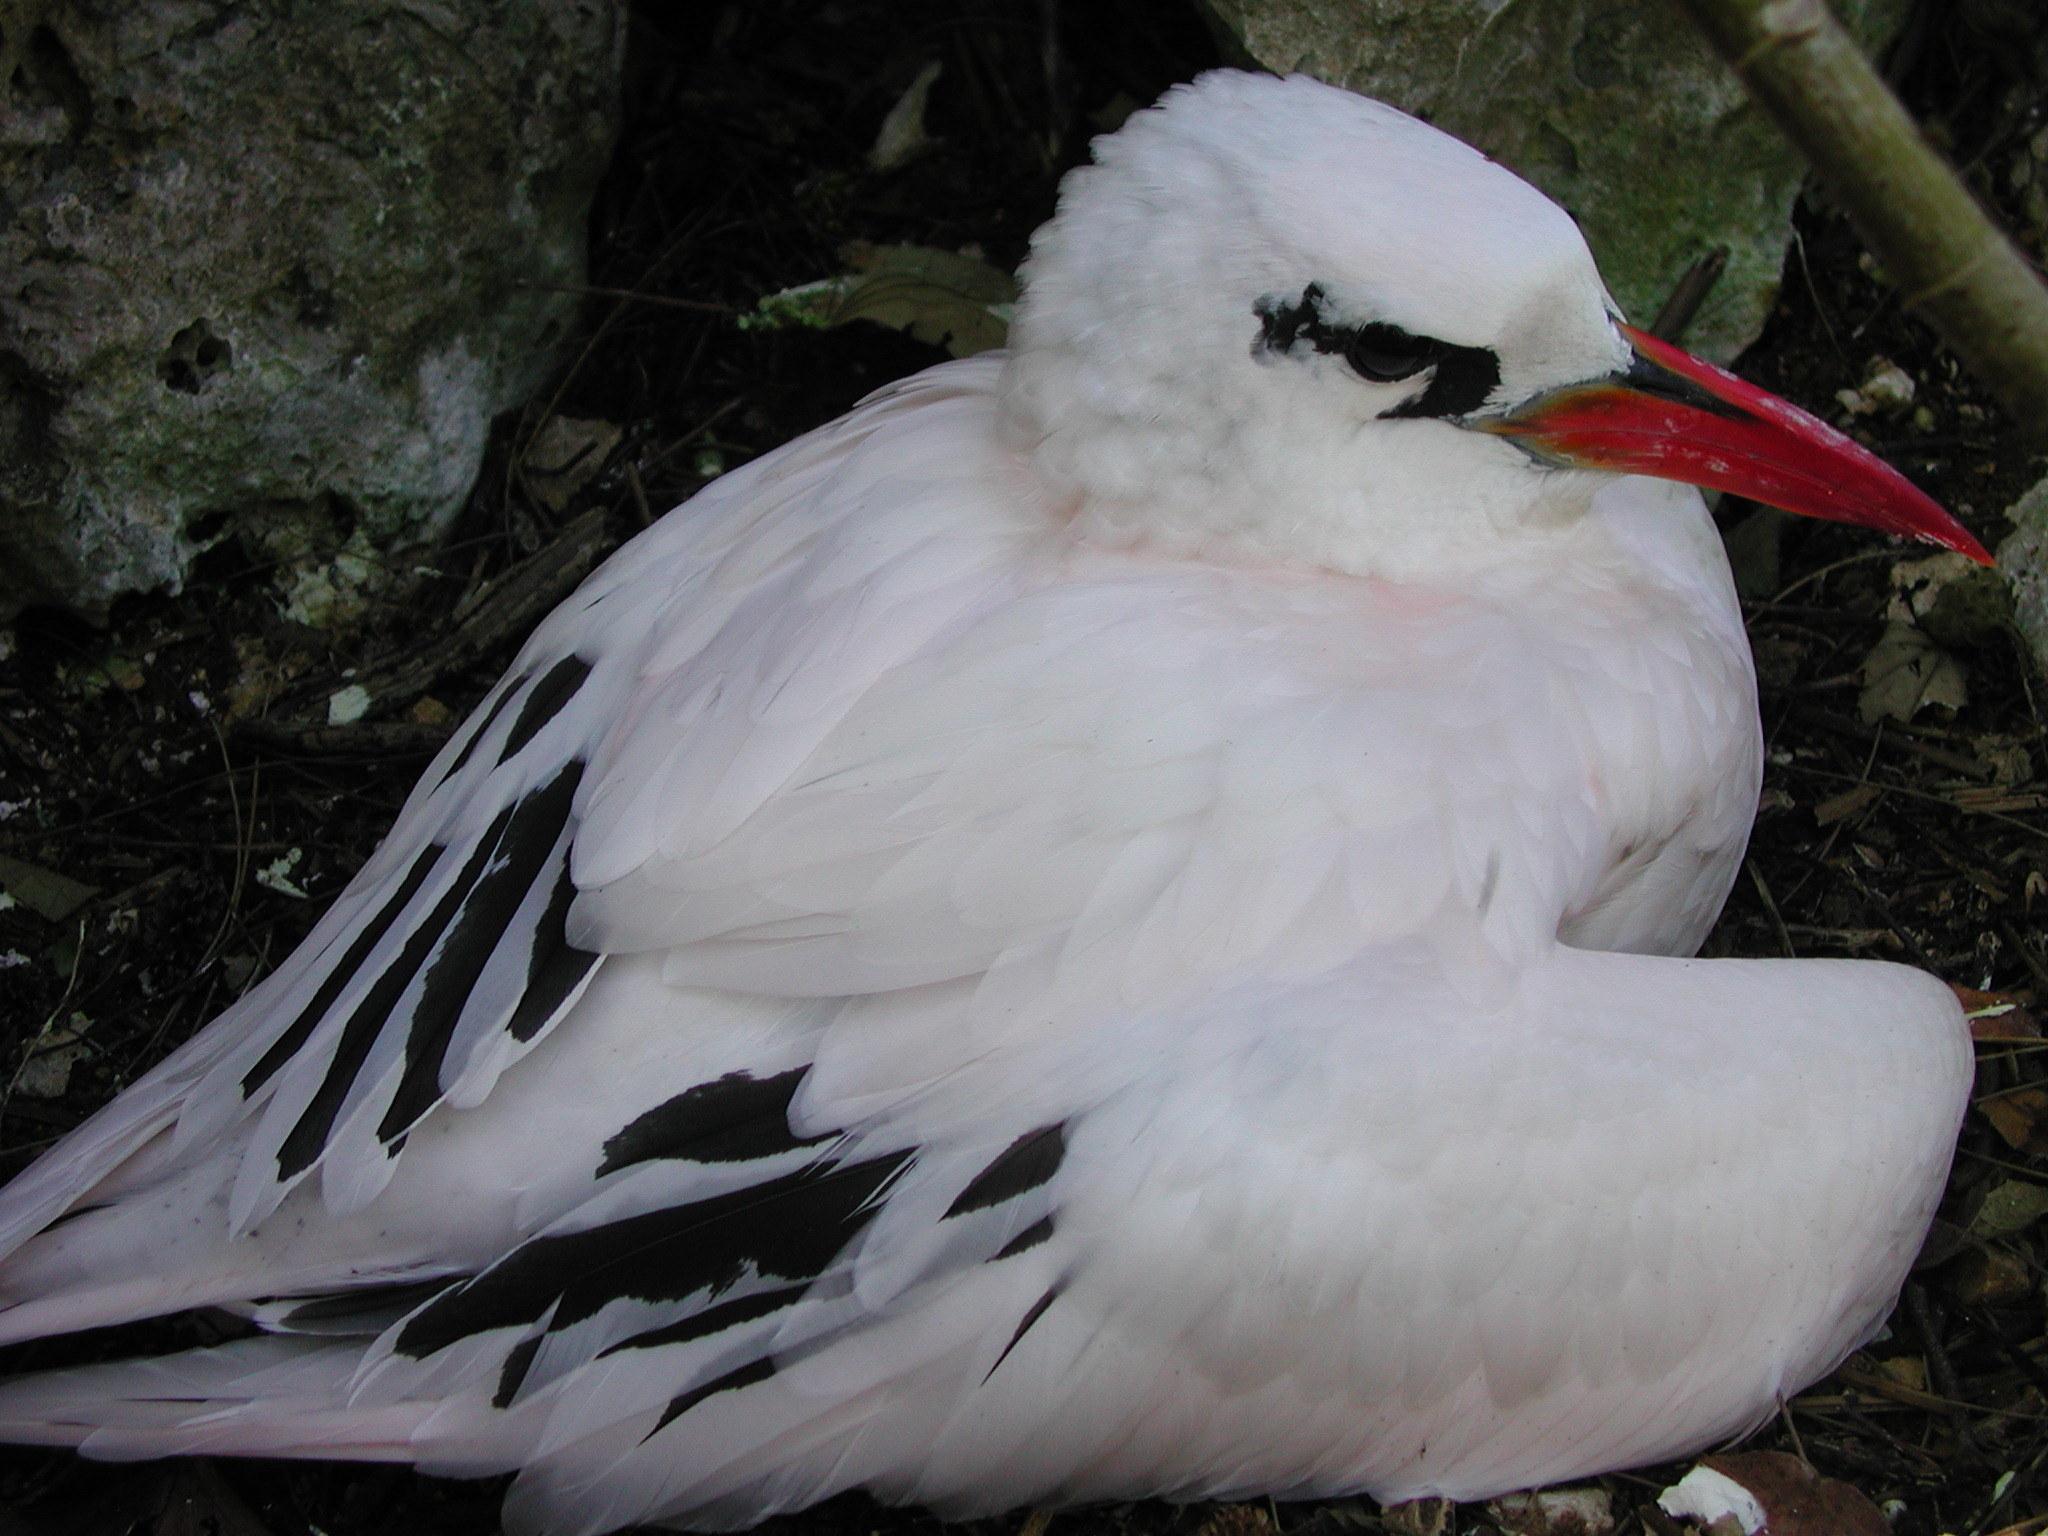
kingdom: Animalia
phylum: Chordata
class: Aves
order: Phaethontiformes
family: Phaethontidae
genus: Phaethon
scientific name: Phaethon rubricauda
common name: Red-tailed tropicbird
